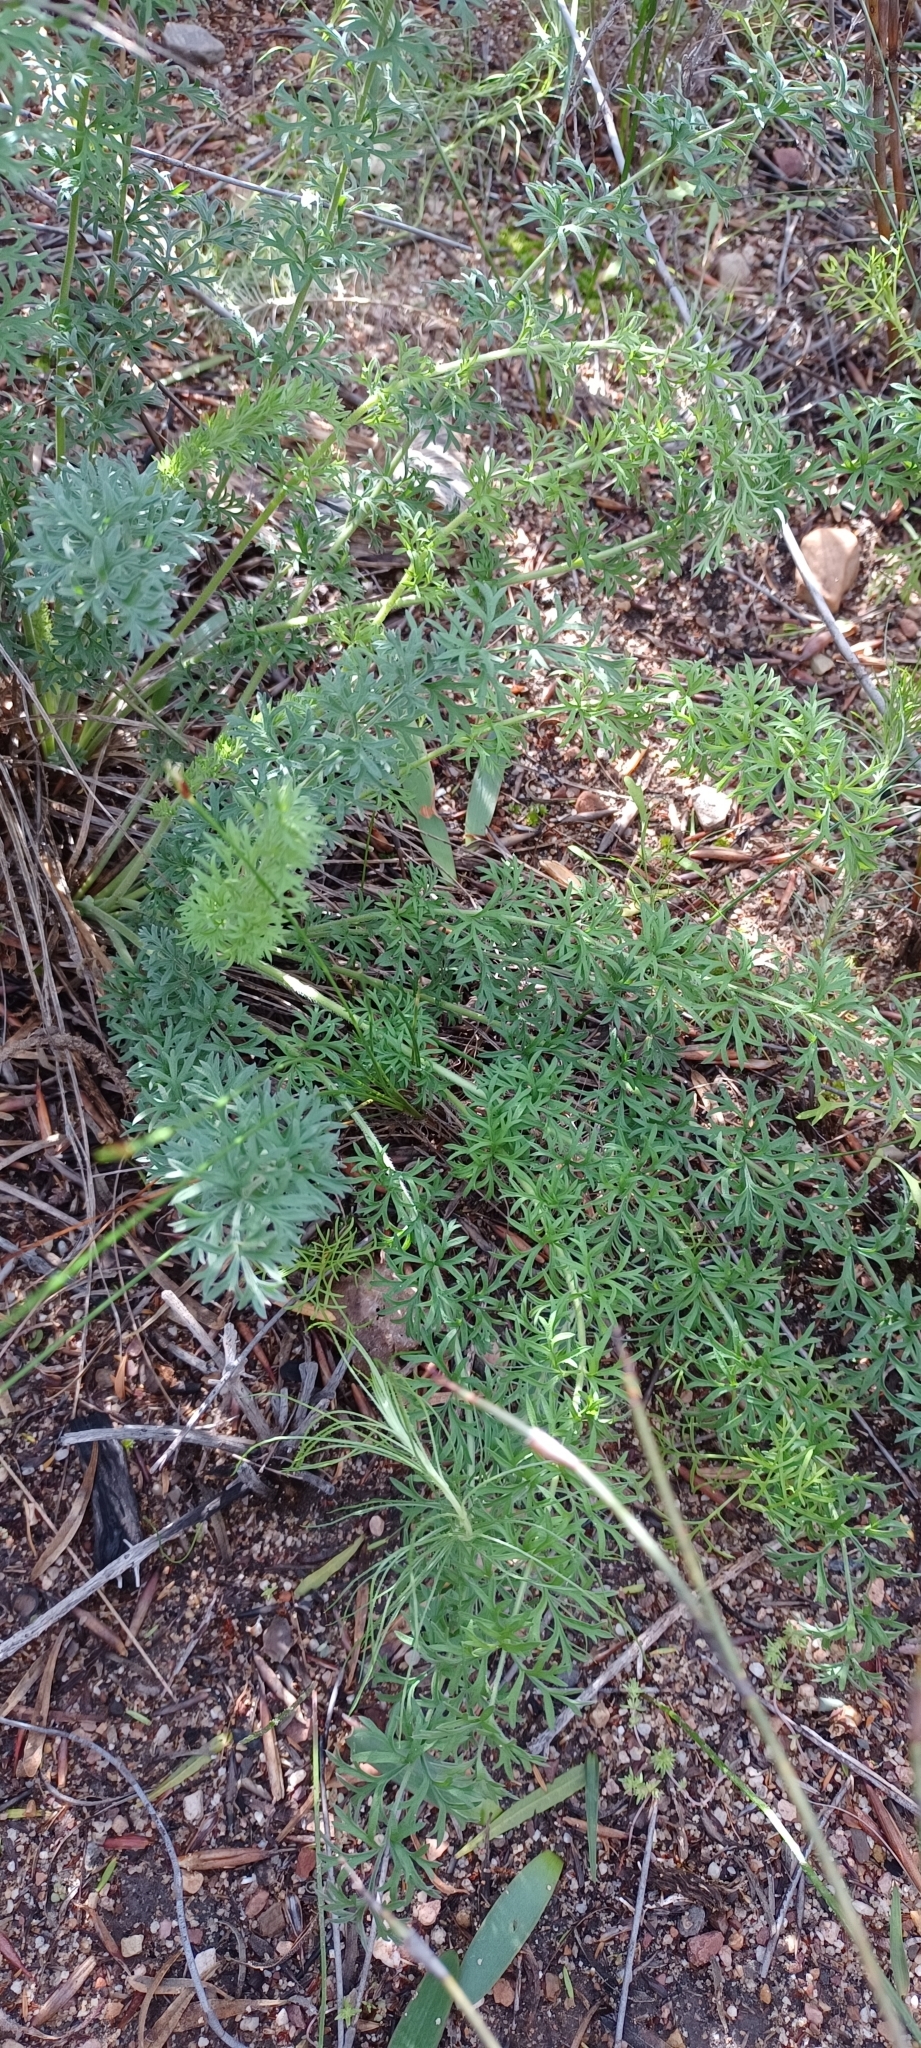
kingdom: Plantae
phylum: Tracheophyta
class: Magnoliopsida
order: Geraniales
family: Geraniaceae
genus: Pelargonium
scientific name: Pelargonium rapaceum
